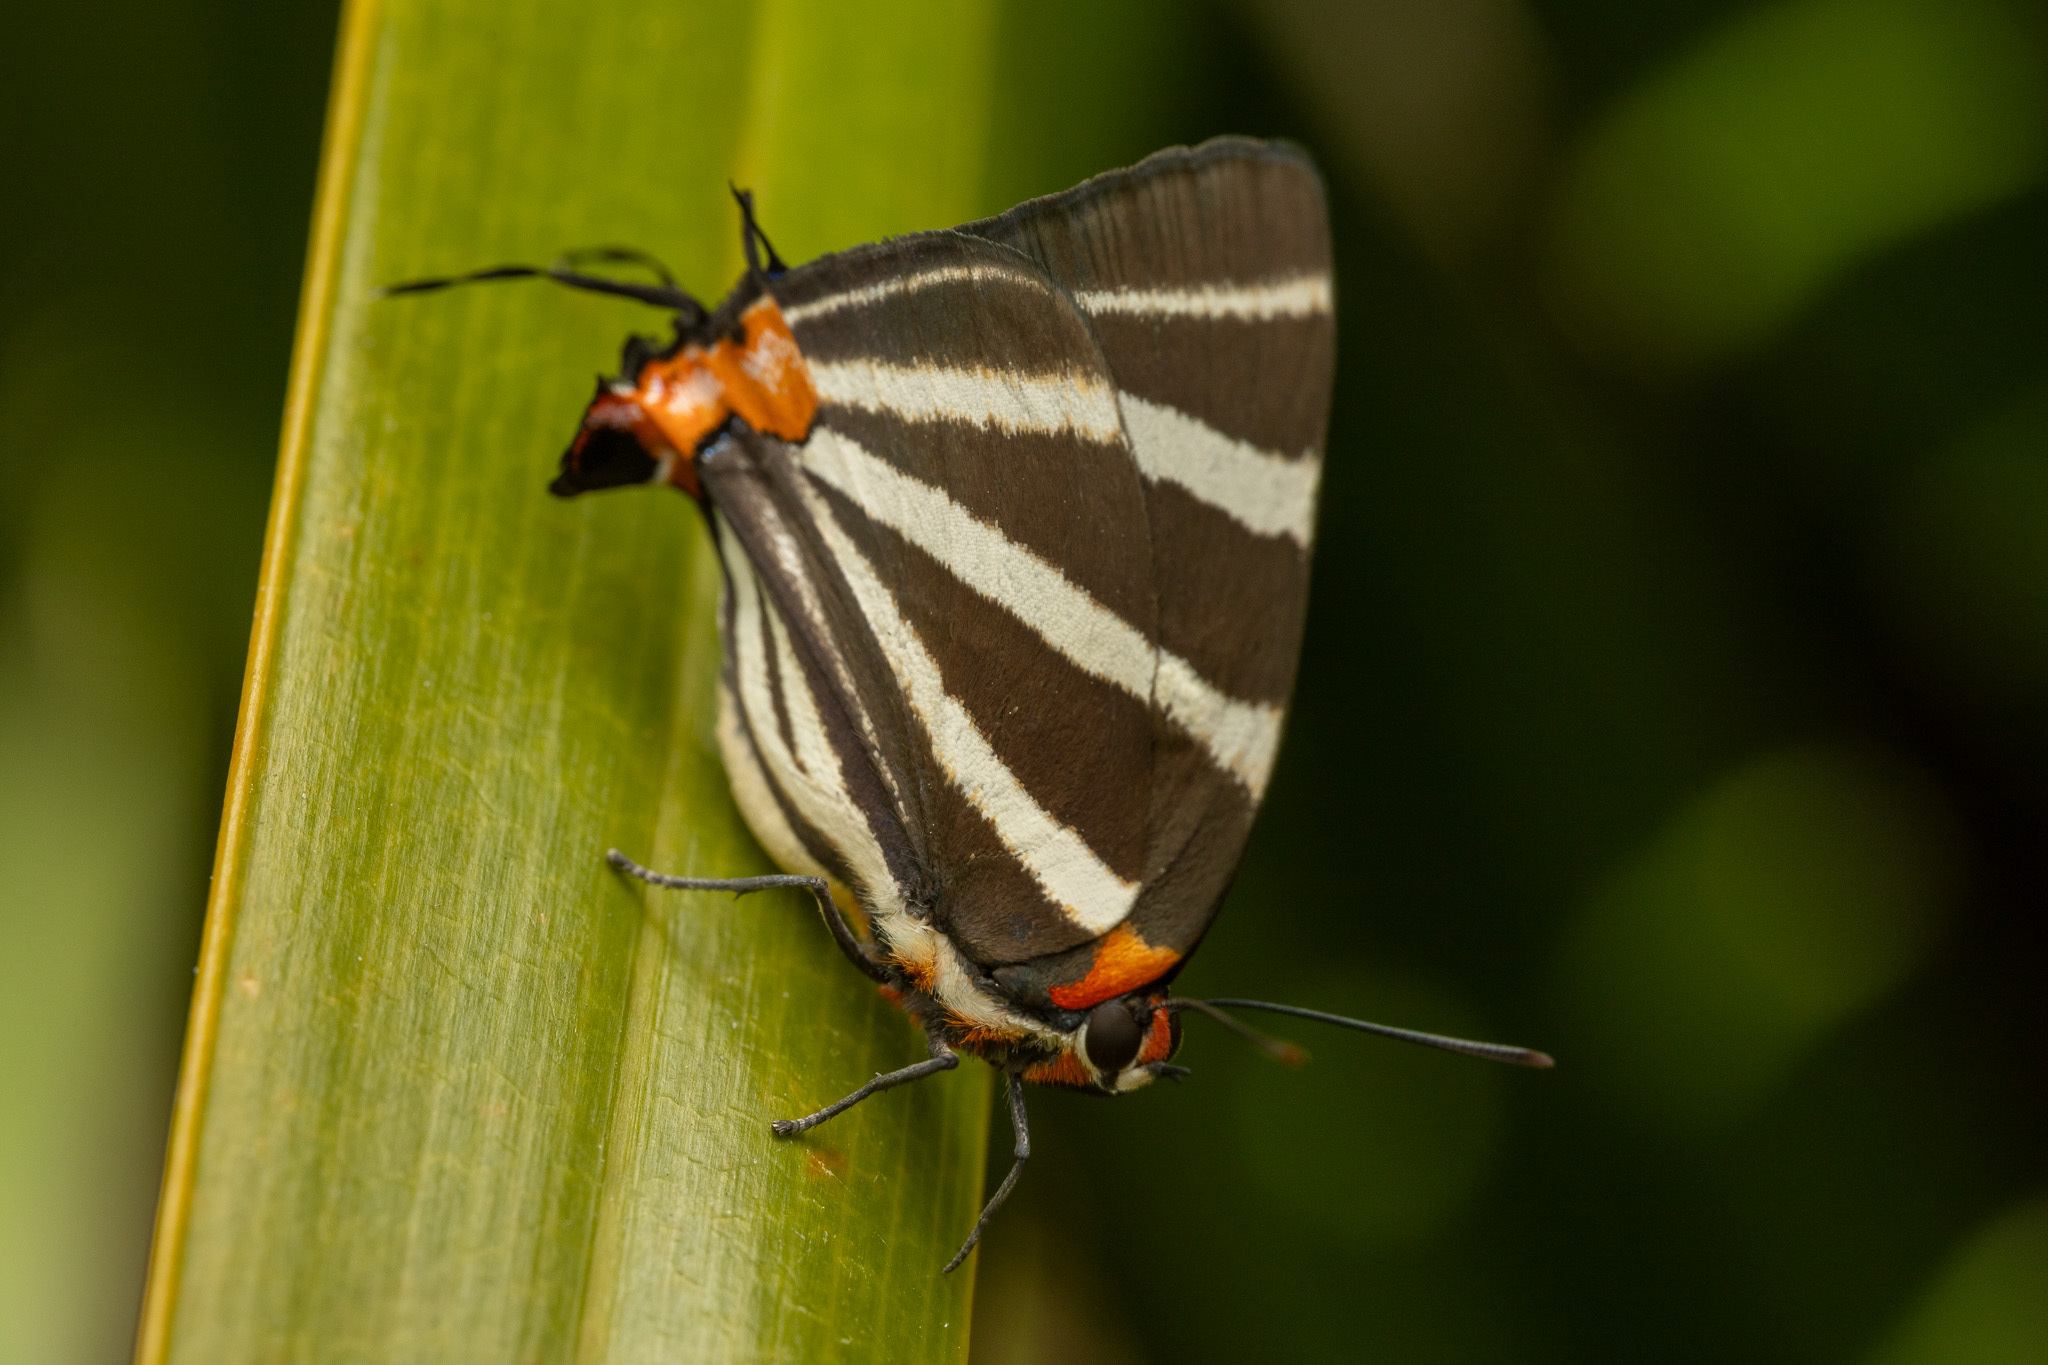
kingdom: Animalia
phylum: Arthropoda
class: Insecta
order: Lepidoptera
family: Lycaenidae
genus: Thecla
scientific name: Thecla bathildis
